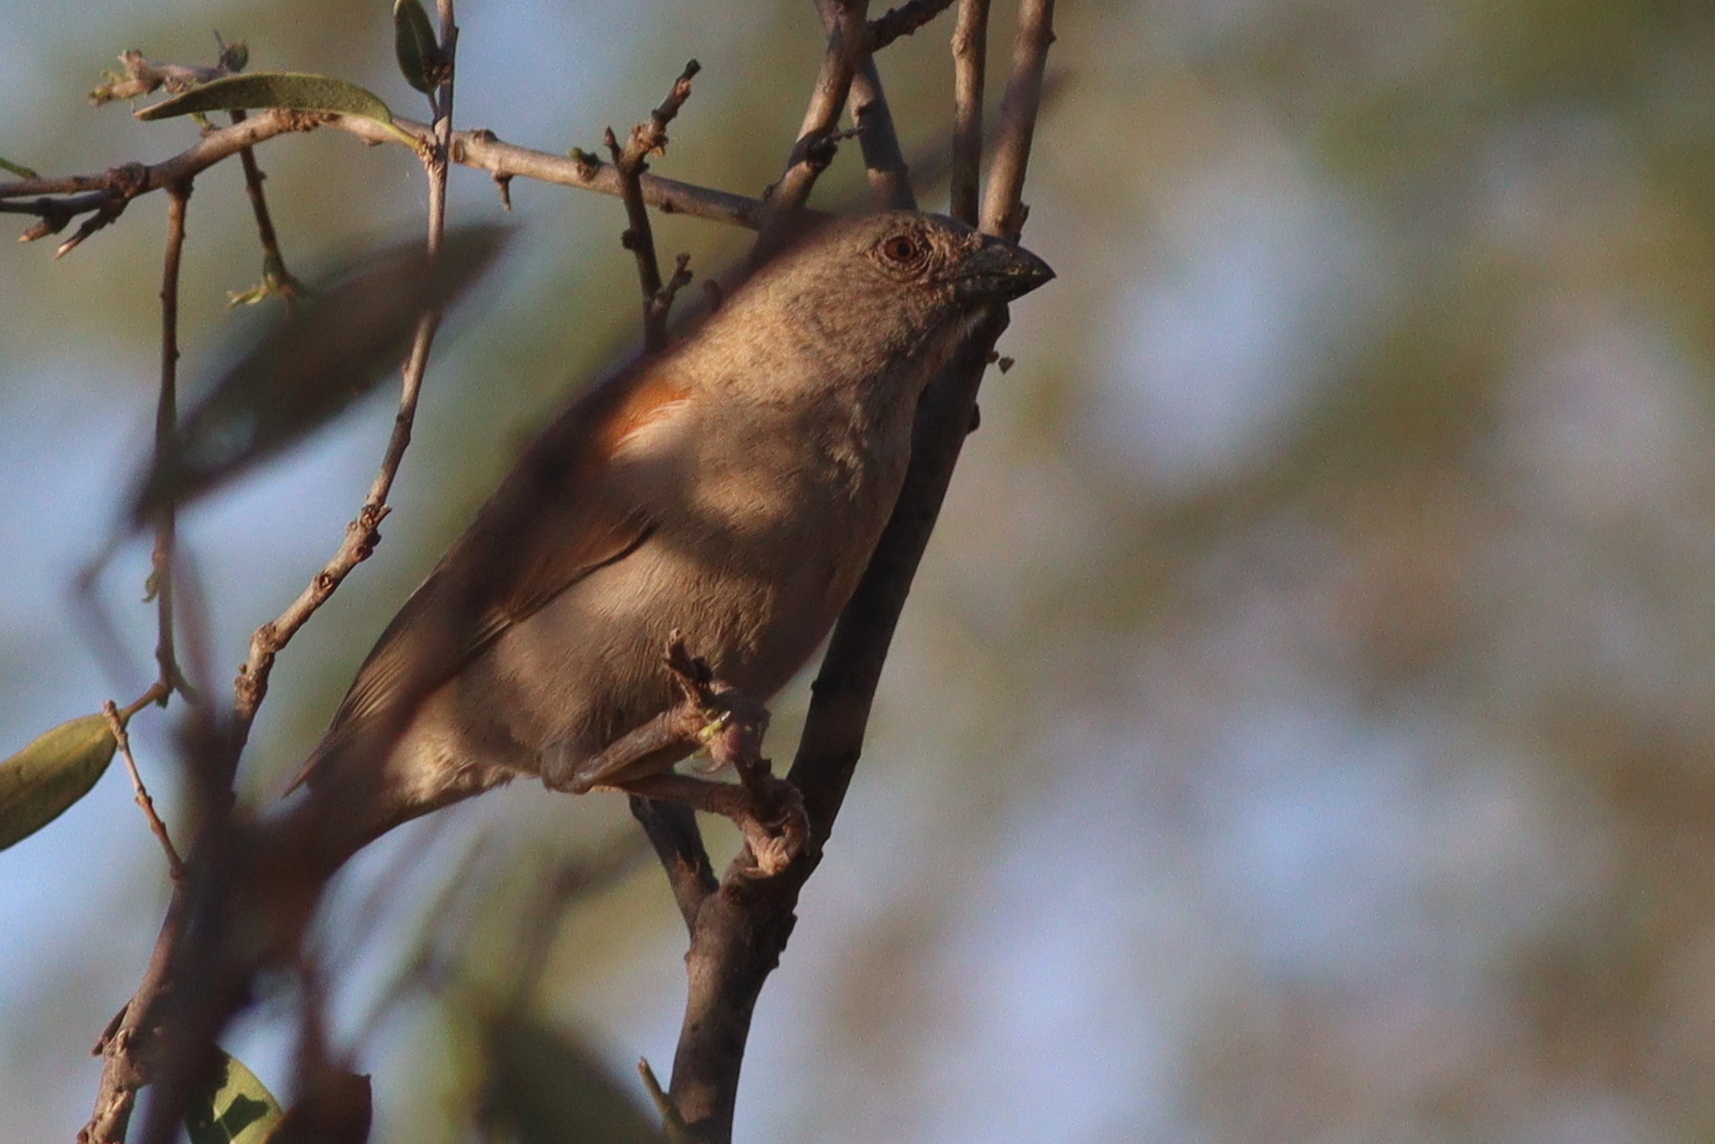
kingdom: Animalia
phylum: Chordata
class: Aves
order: Passeriformes
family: Passeridae
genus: Passer
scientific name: Passer gongonensis
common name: Parrot-billed sparrow
